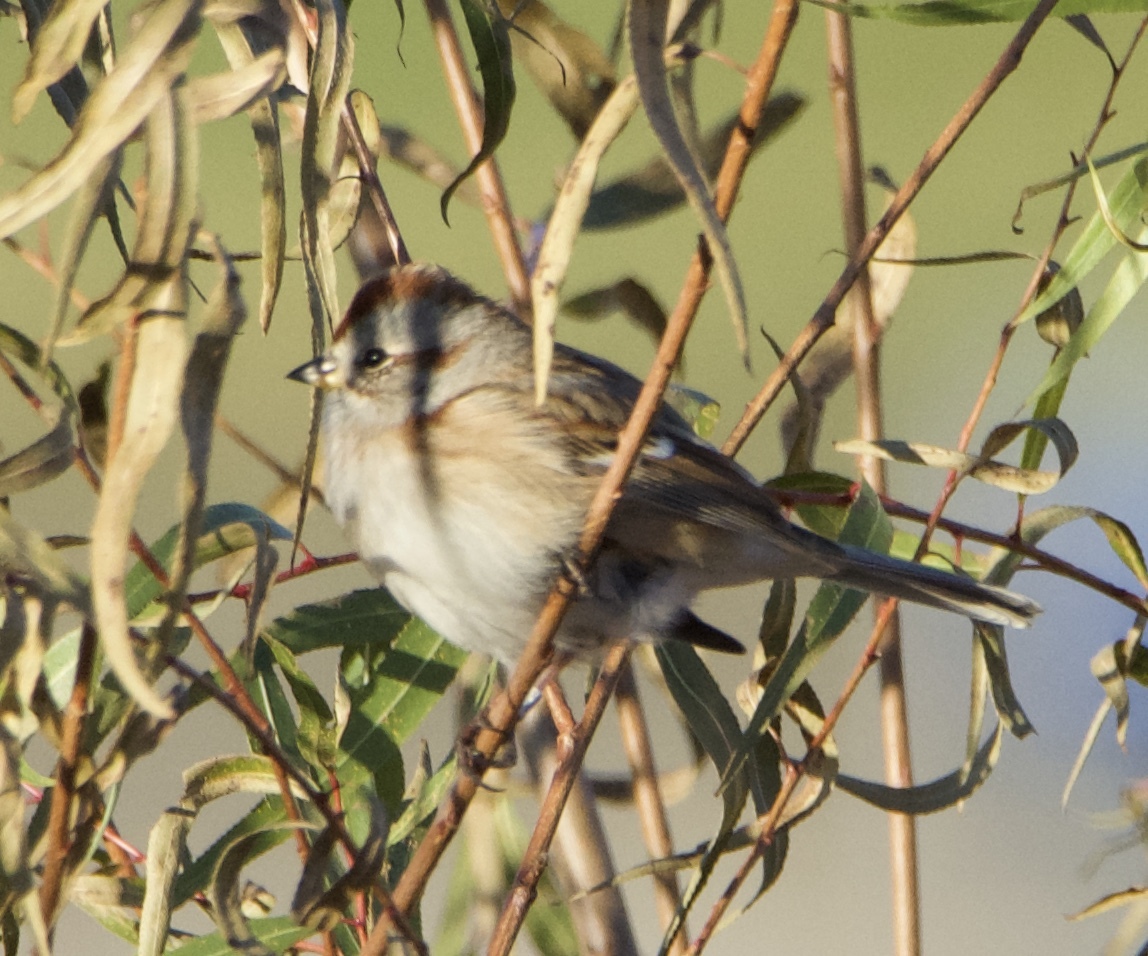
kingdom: Animalia
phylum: Chordata
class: Aves
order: Passeriformes
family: Passerellidae
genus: Spizelloides
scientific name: Spizelloides arborea
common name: American tree sparrow
